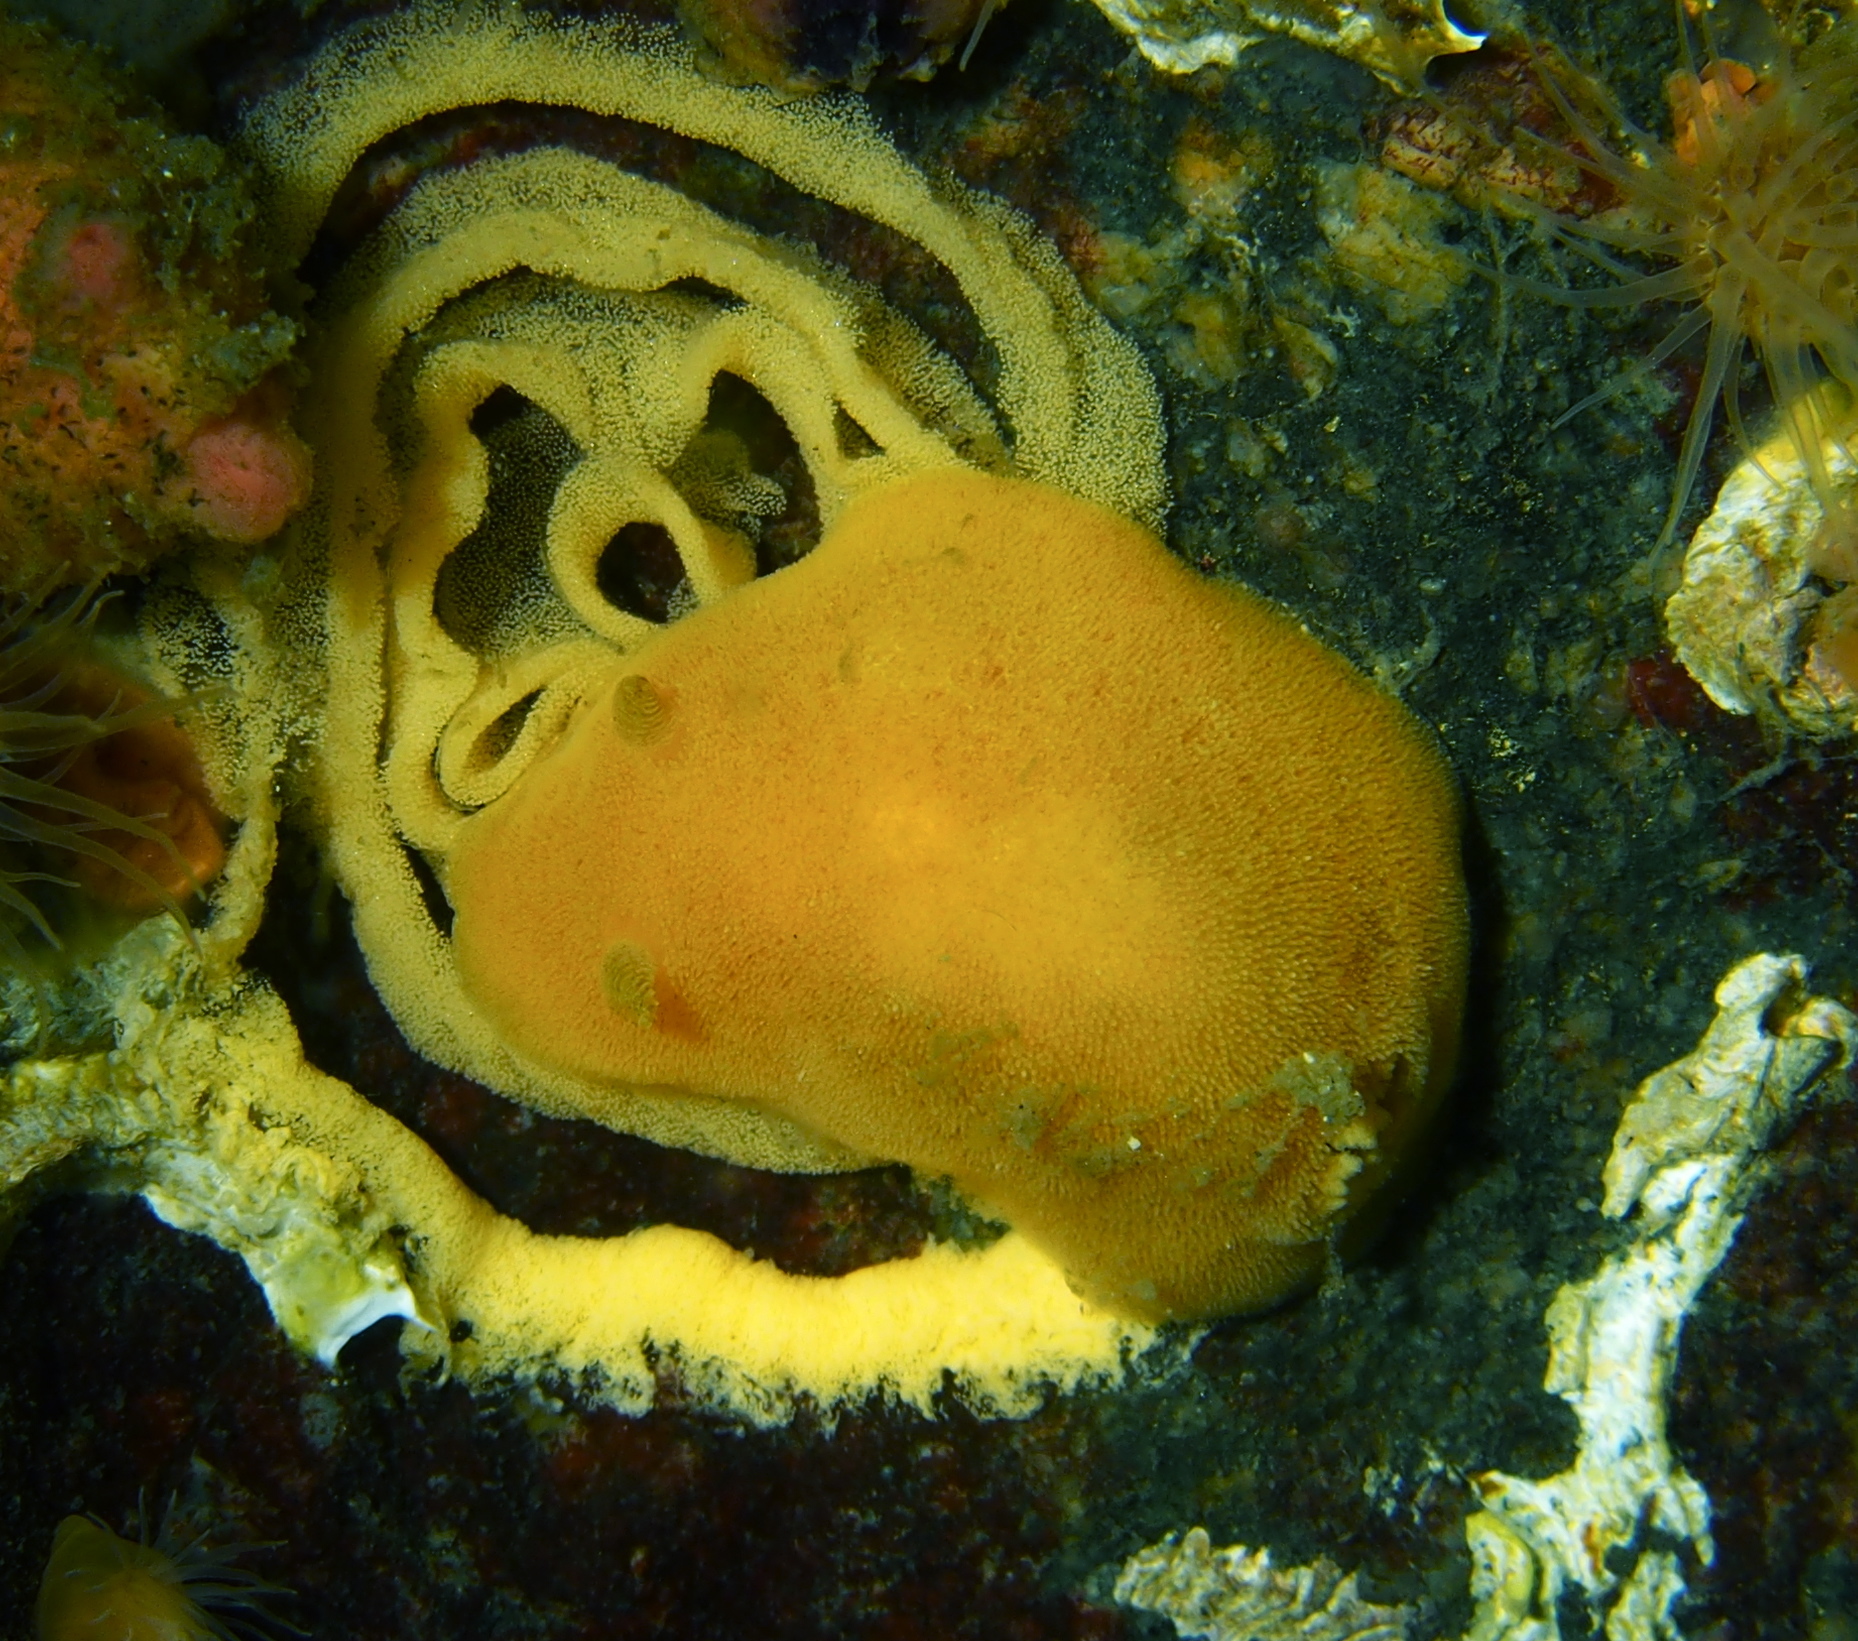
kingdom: Animalia
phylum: Mollusca
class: Gastropoda
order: Nudibranchia
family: Discodorididae
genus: Jorunna
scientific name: Jorunna tomentosa
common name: Grey sea slug
